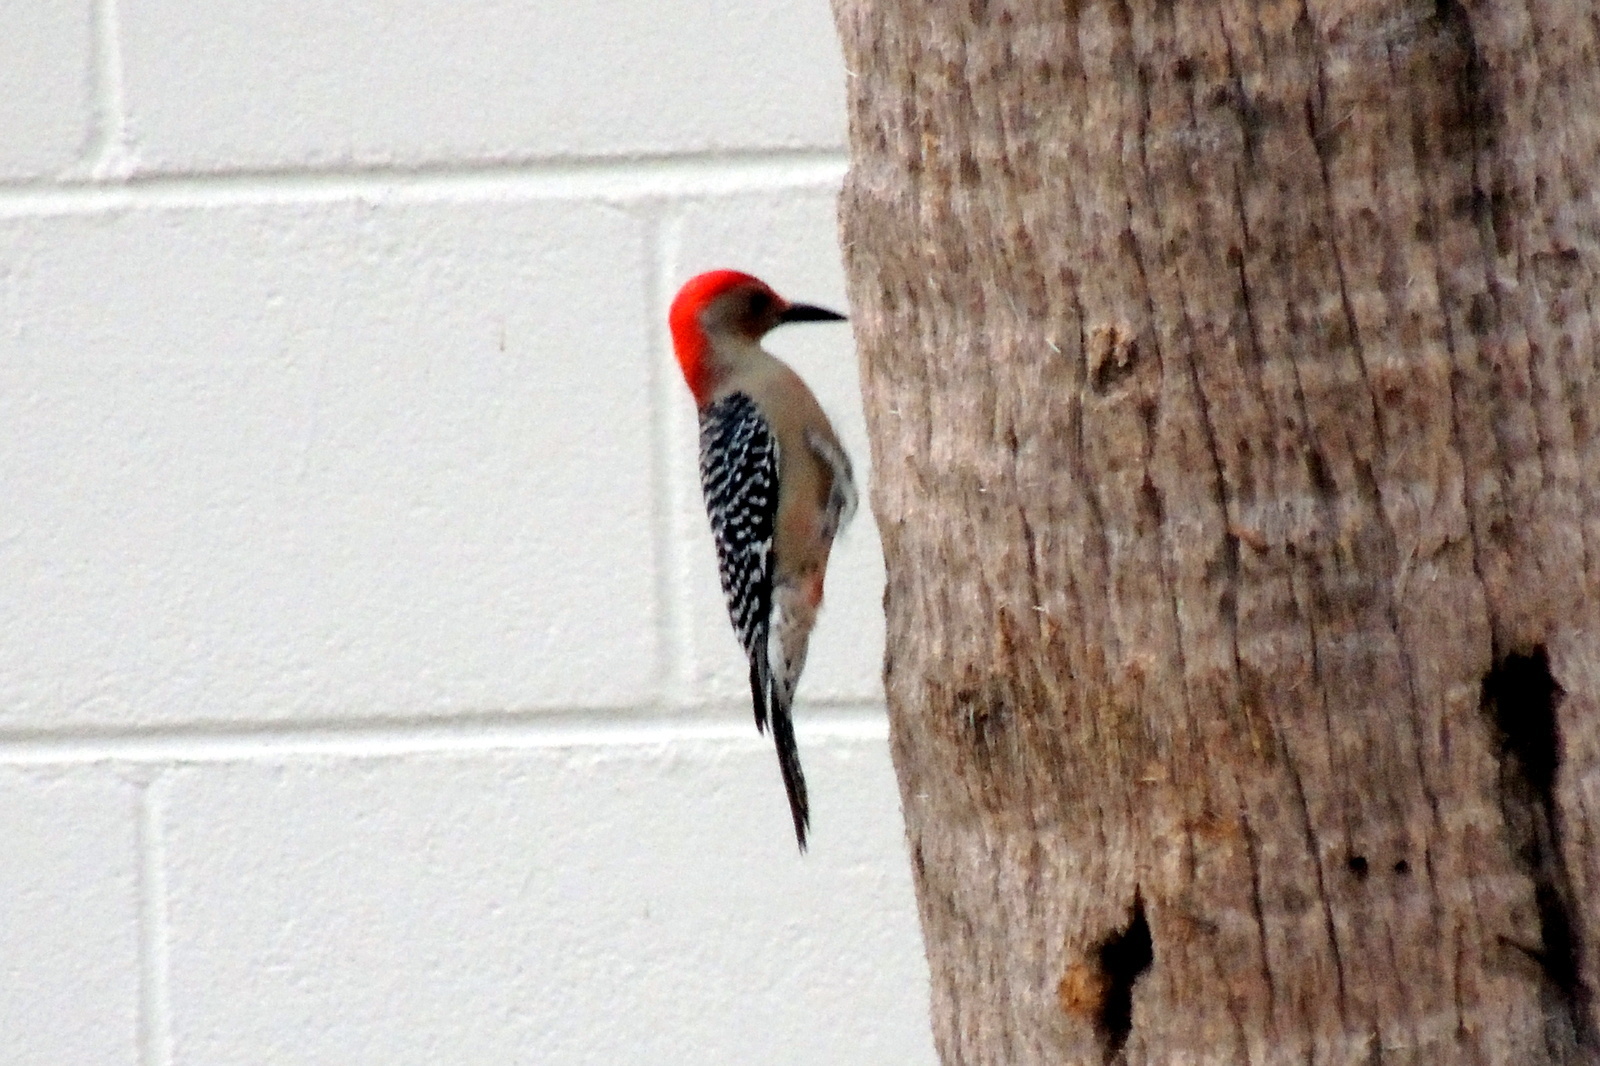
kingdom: Animalia
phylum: Chordata
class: Aves
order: Piciformes
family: Picidae
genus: Melanerpes
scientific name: Melanerpes carolinus
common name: Red-bellied woodpecker
